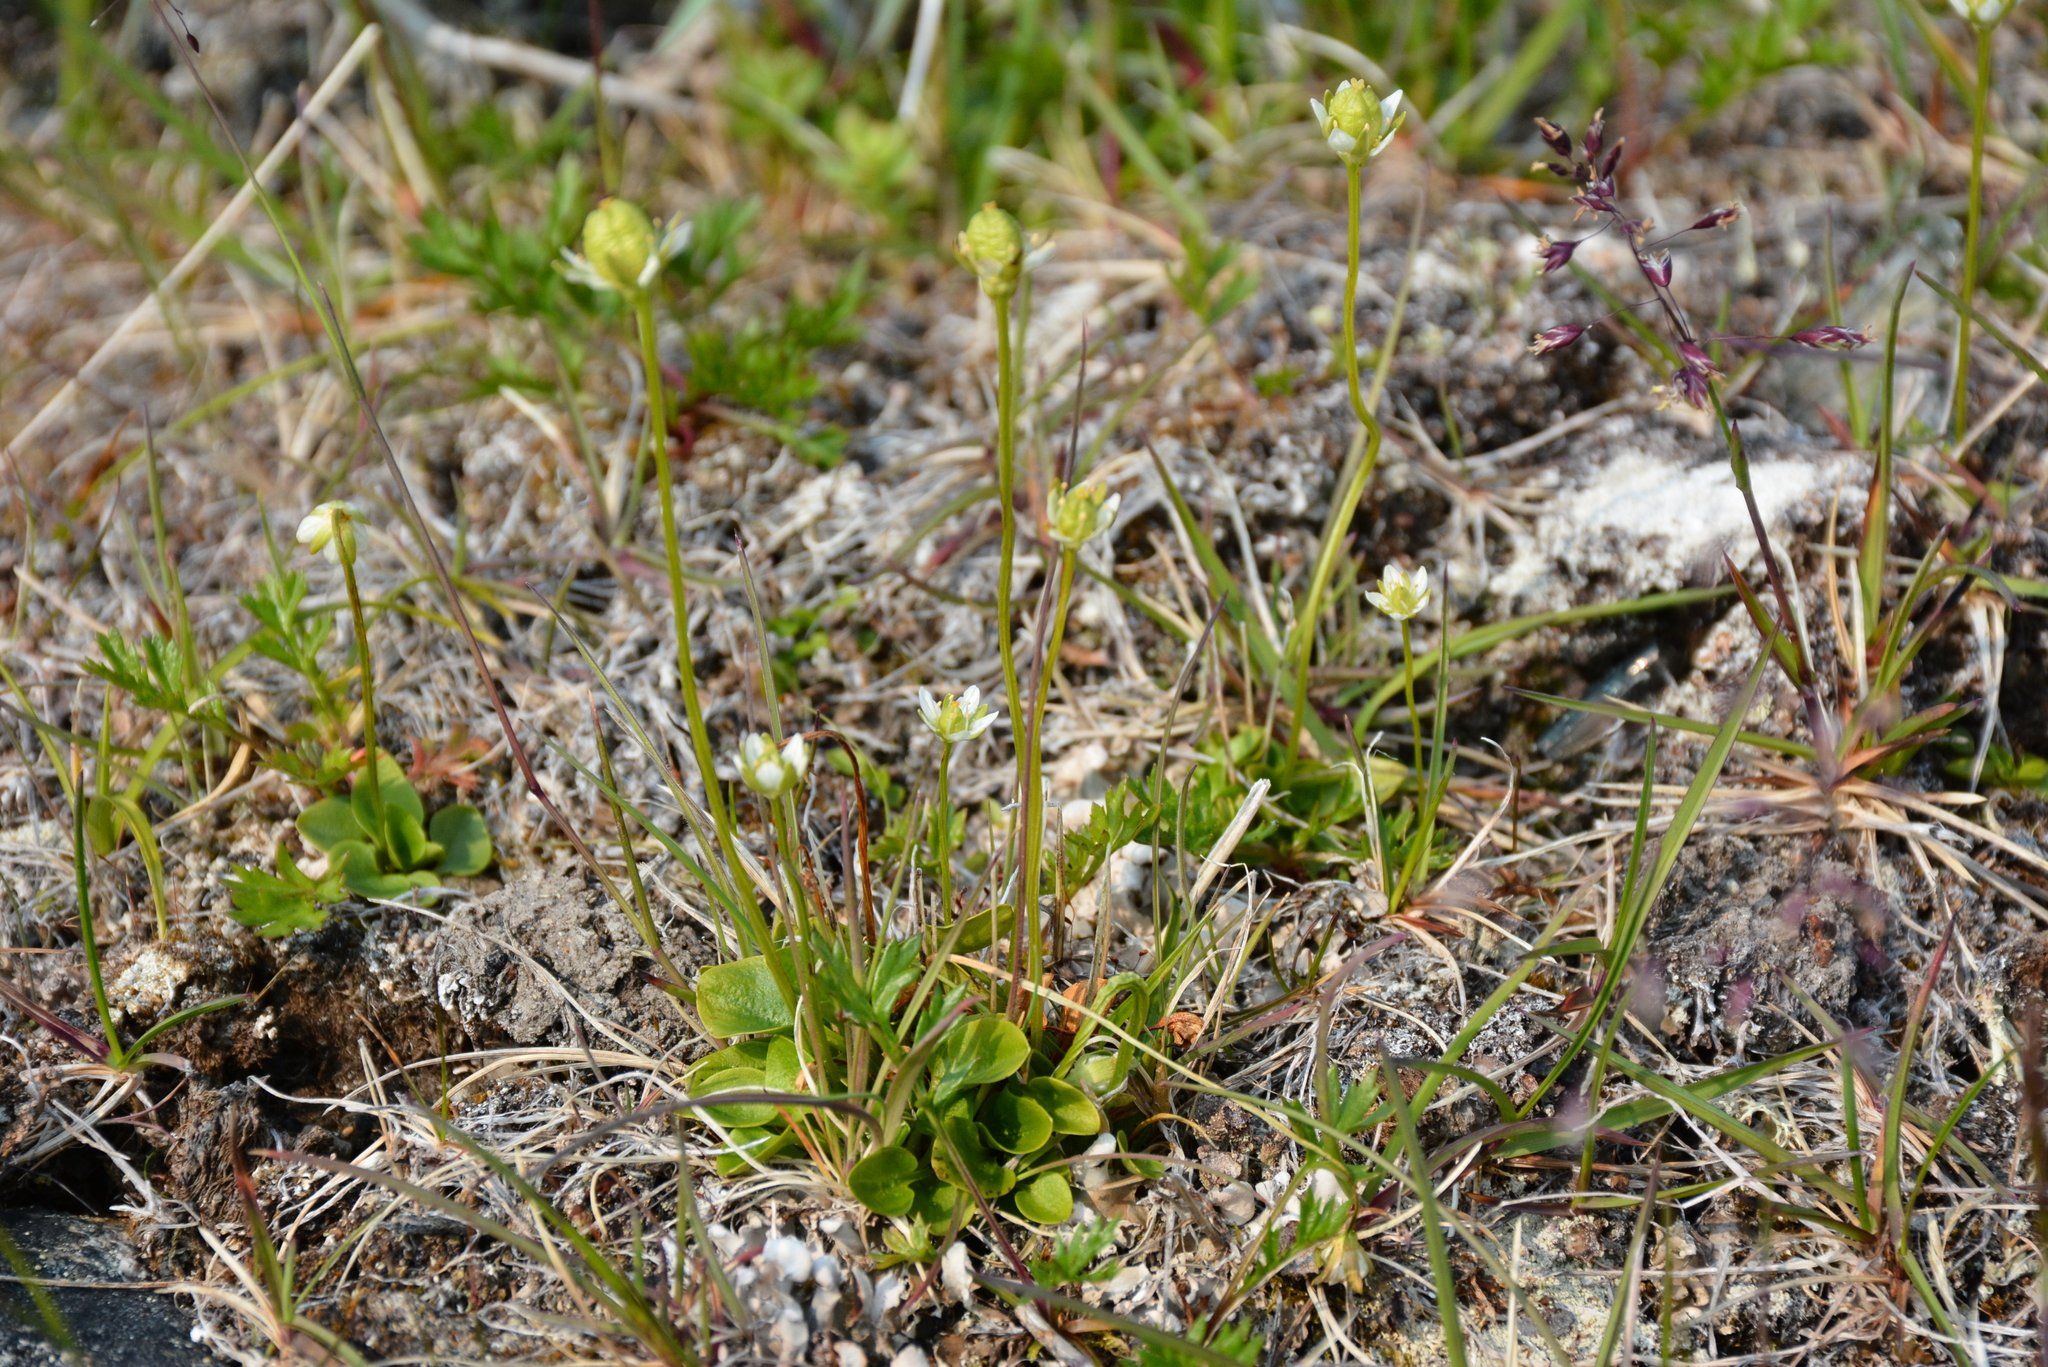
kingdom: Plantae
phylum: Tracheophyta
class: Magnoliopsida
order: Celastrales
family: Parnassiaceae
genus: Parnassia
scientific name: Parnassia kotzebuei
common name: Kotzebue's grass-of-parnassus
